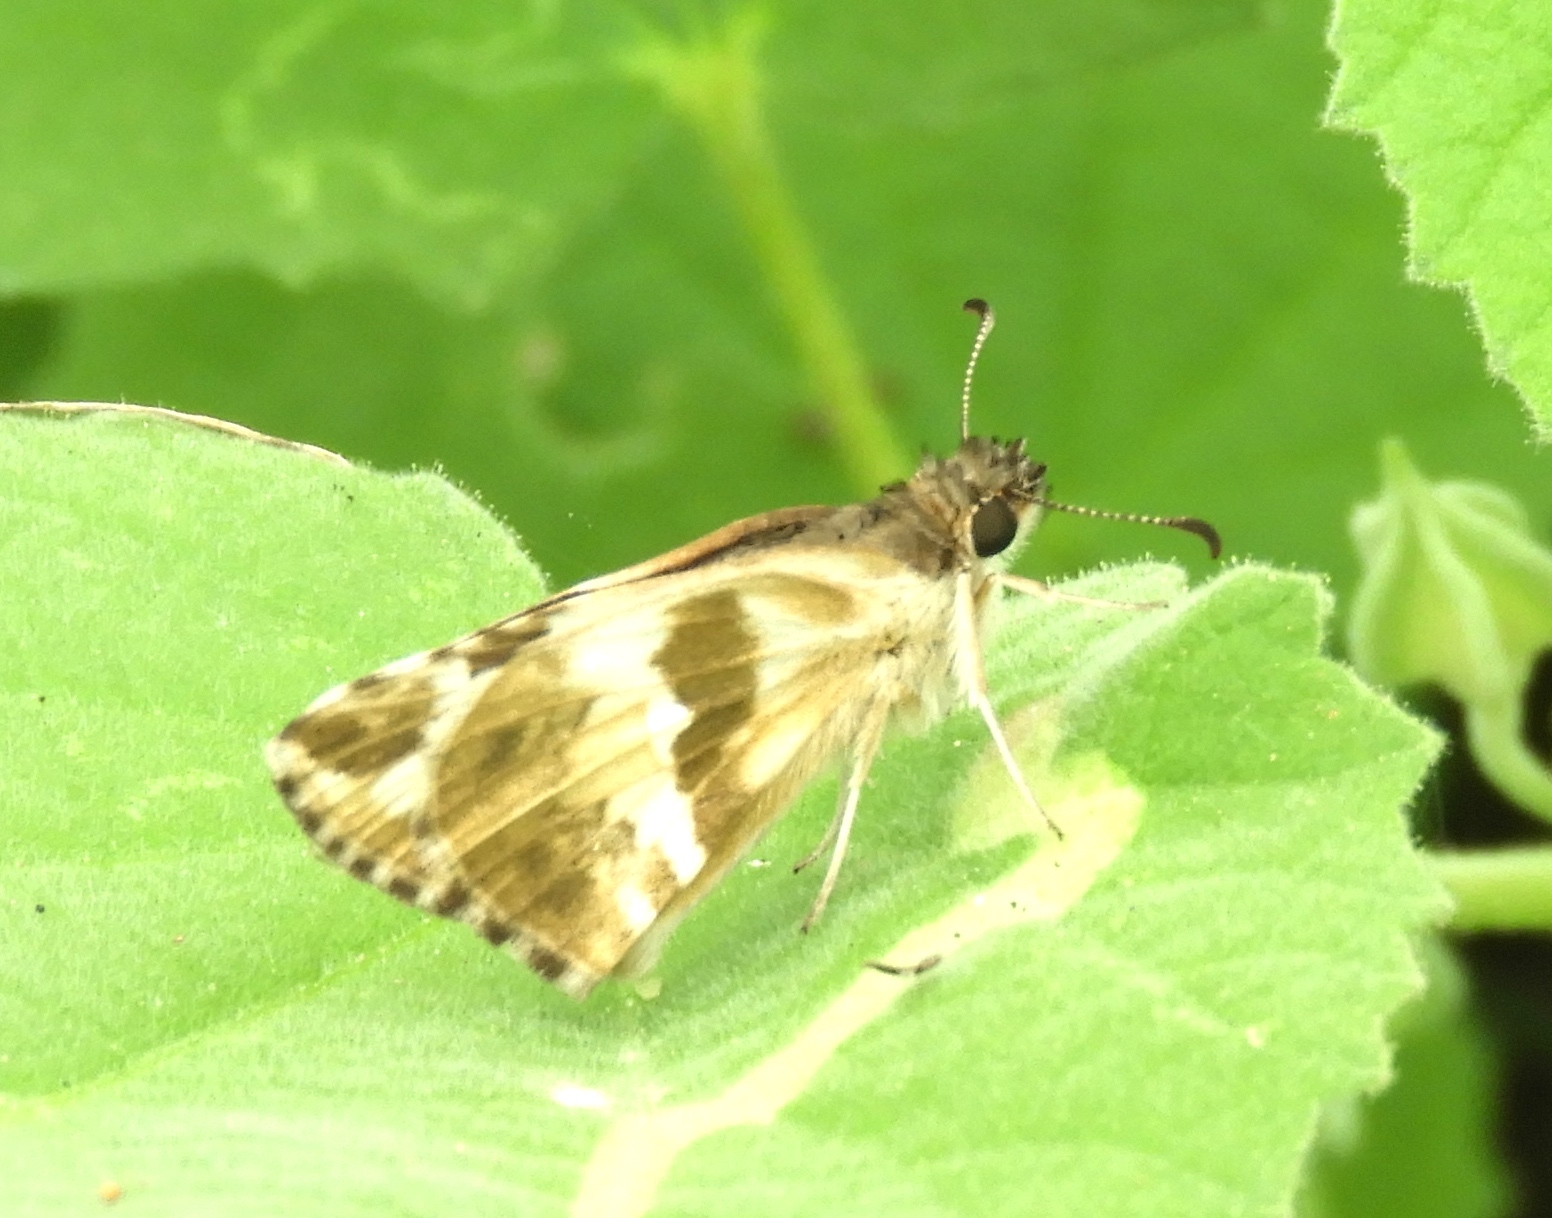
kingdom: Animalia
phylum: Arthropoda
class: Insecta
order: Lepidoptera
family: Hesperiidae
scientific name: Hesperiidae
